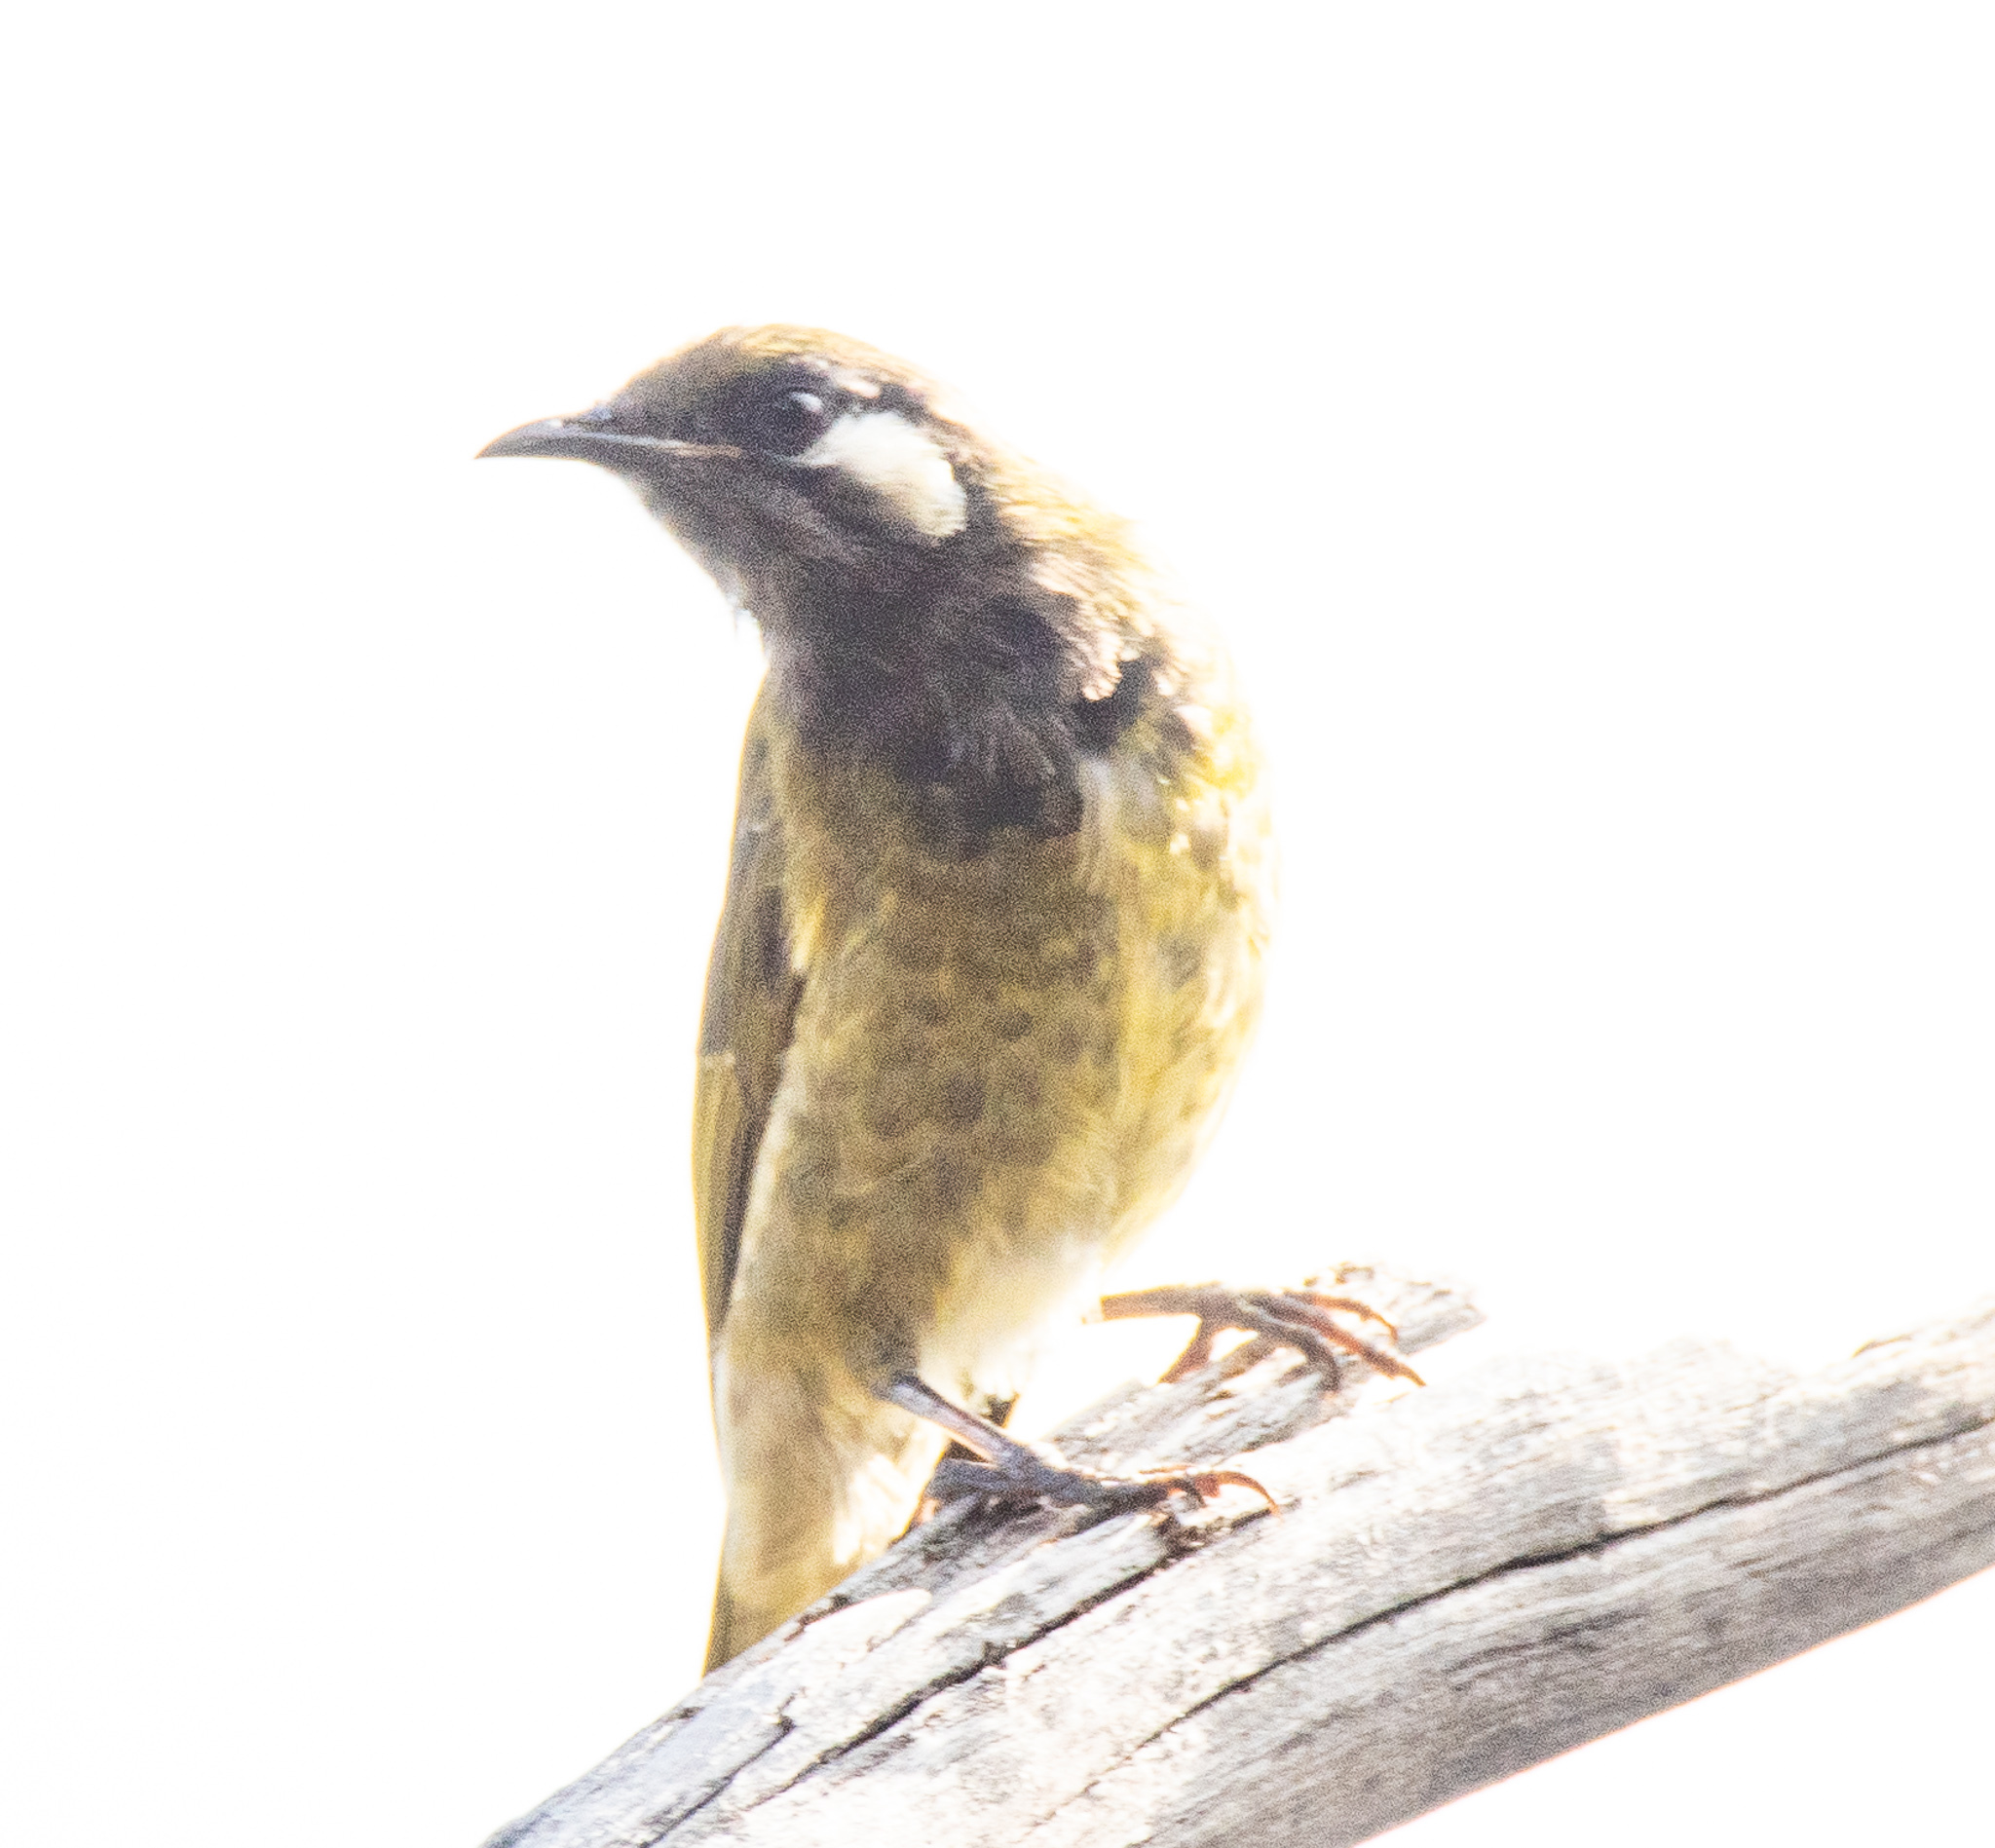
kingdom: Animalia
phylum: Chordata
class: Aves
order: Passeriformes
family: Meliphagidae
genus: Nesoptilotis
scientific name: Nesoptilotis leucotis
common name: White-eared honeyeater
